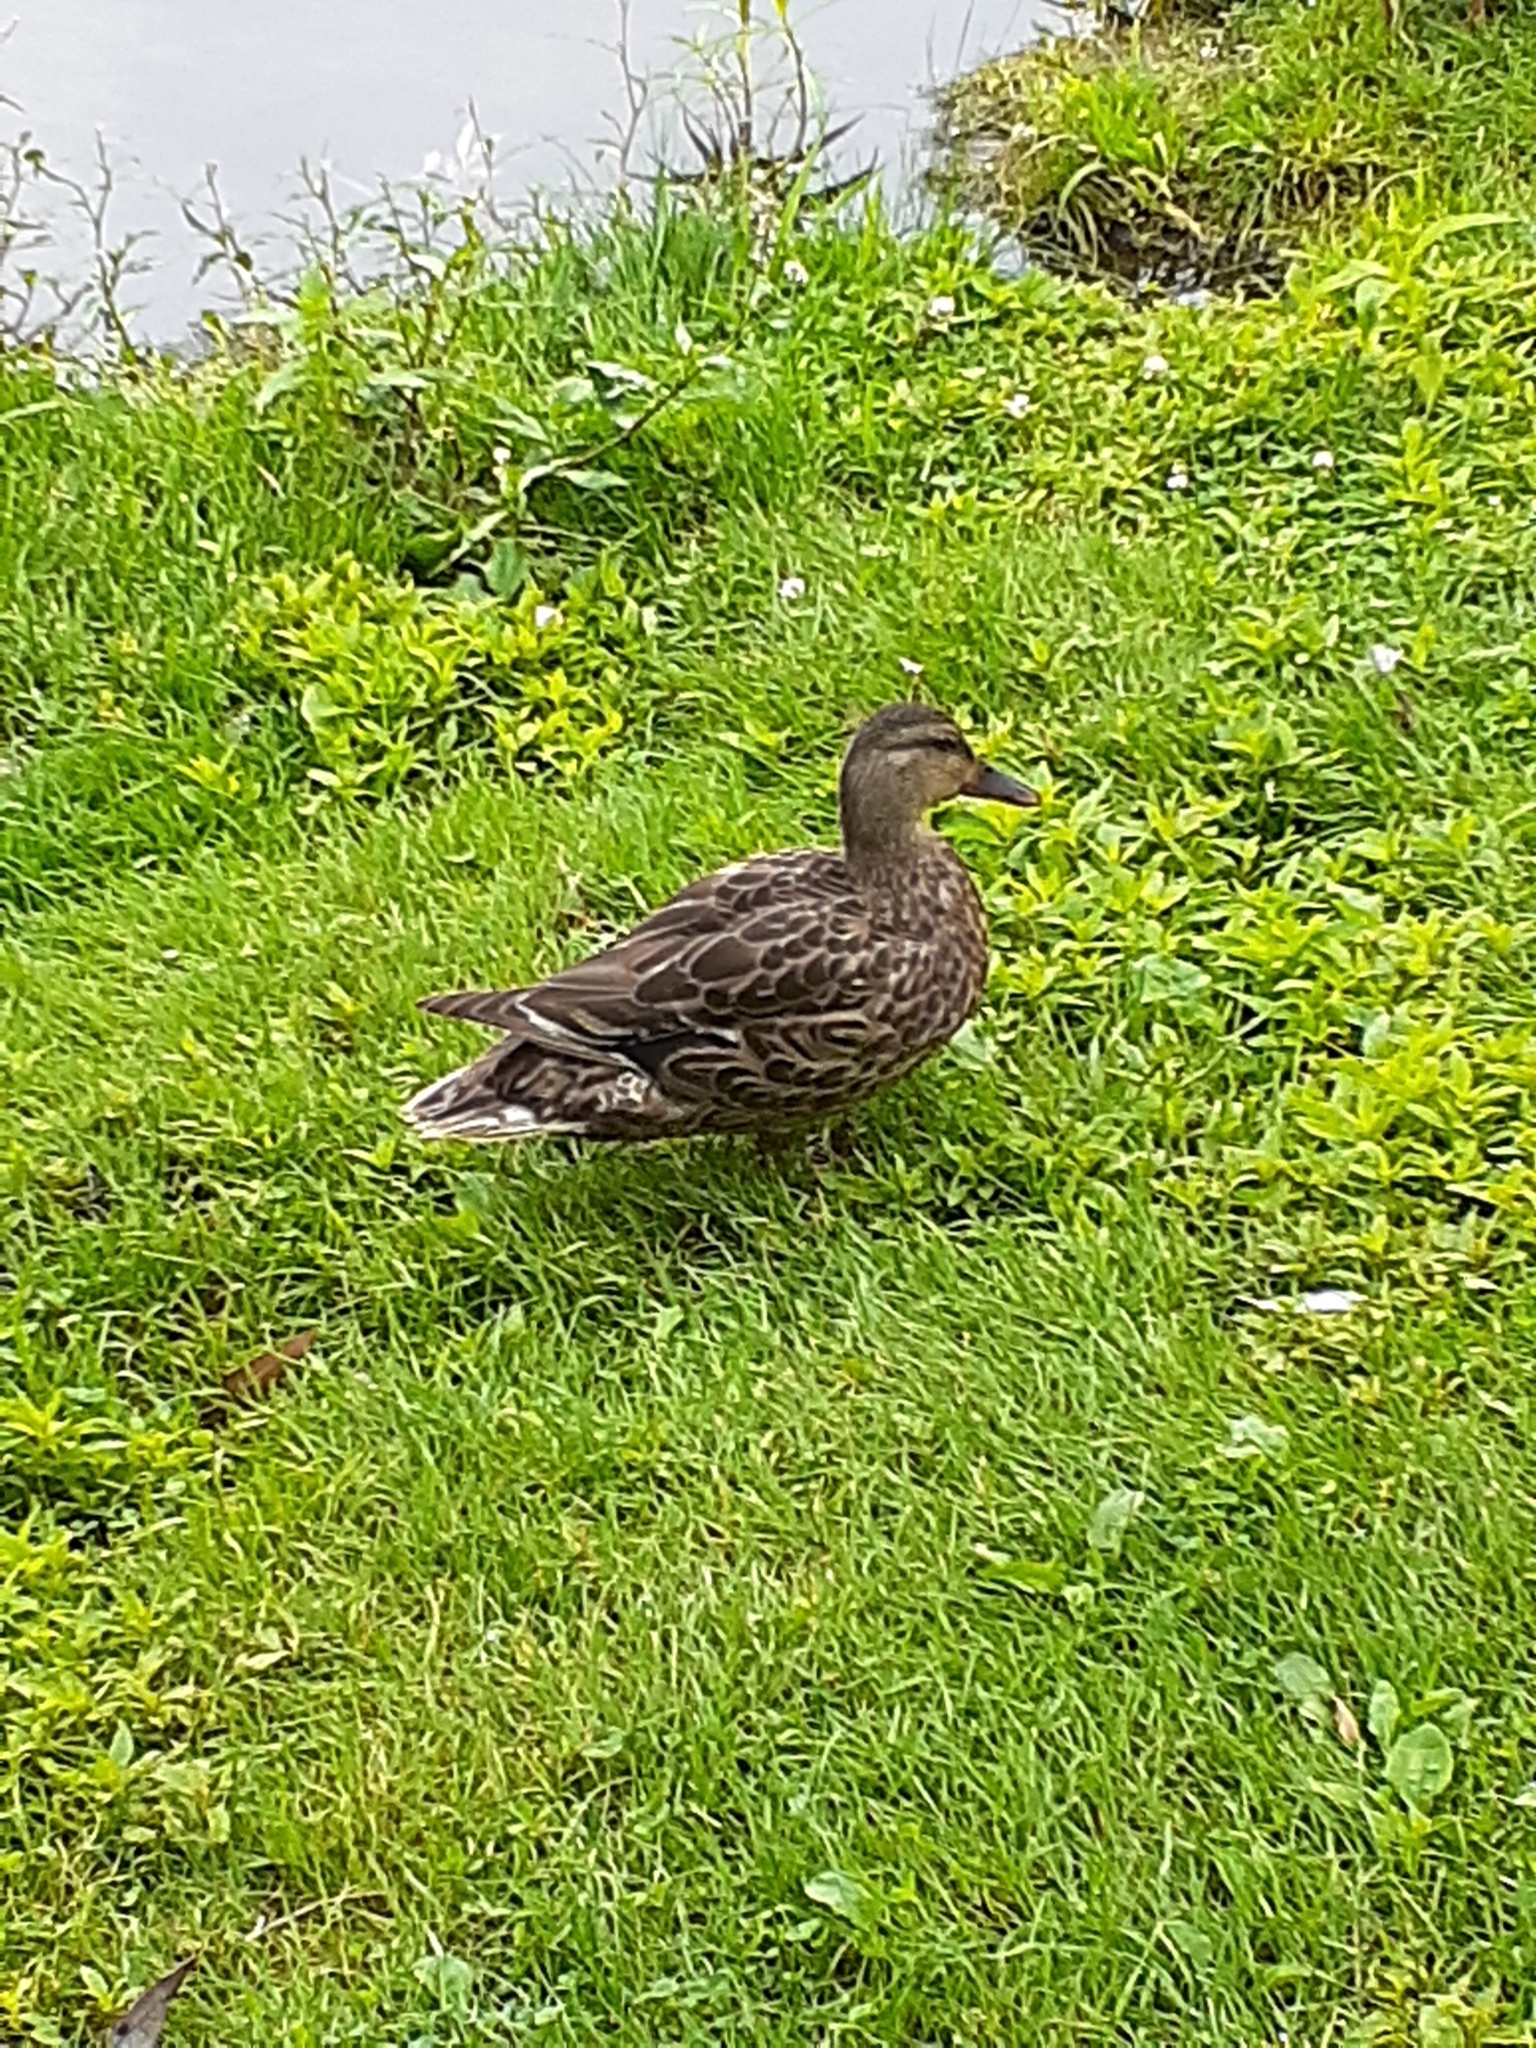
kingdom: Animalia
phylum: Chordata
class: Aves
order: Anseriformes
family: Anatidae
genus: Anas
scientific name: Anas platyrhynchos
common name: Mallard
